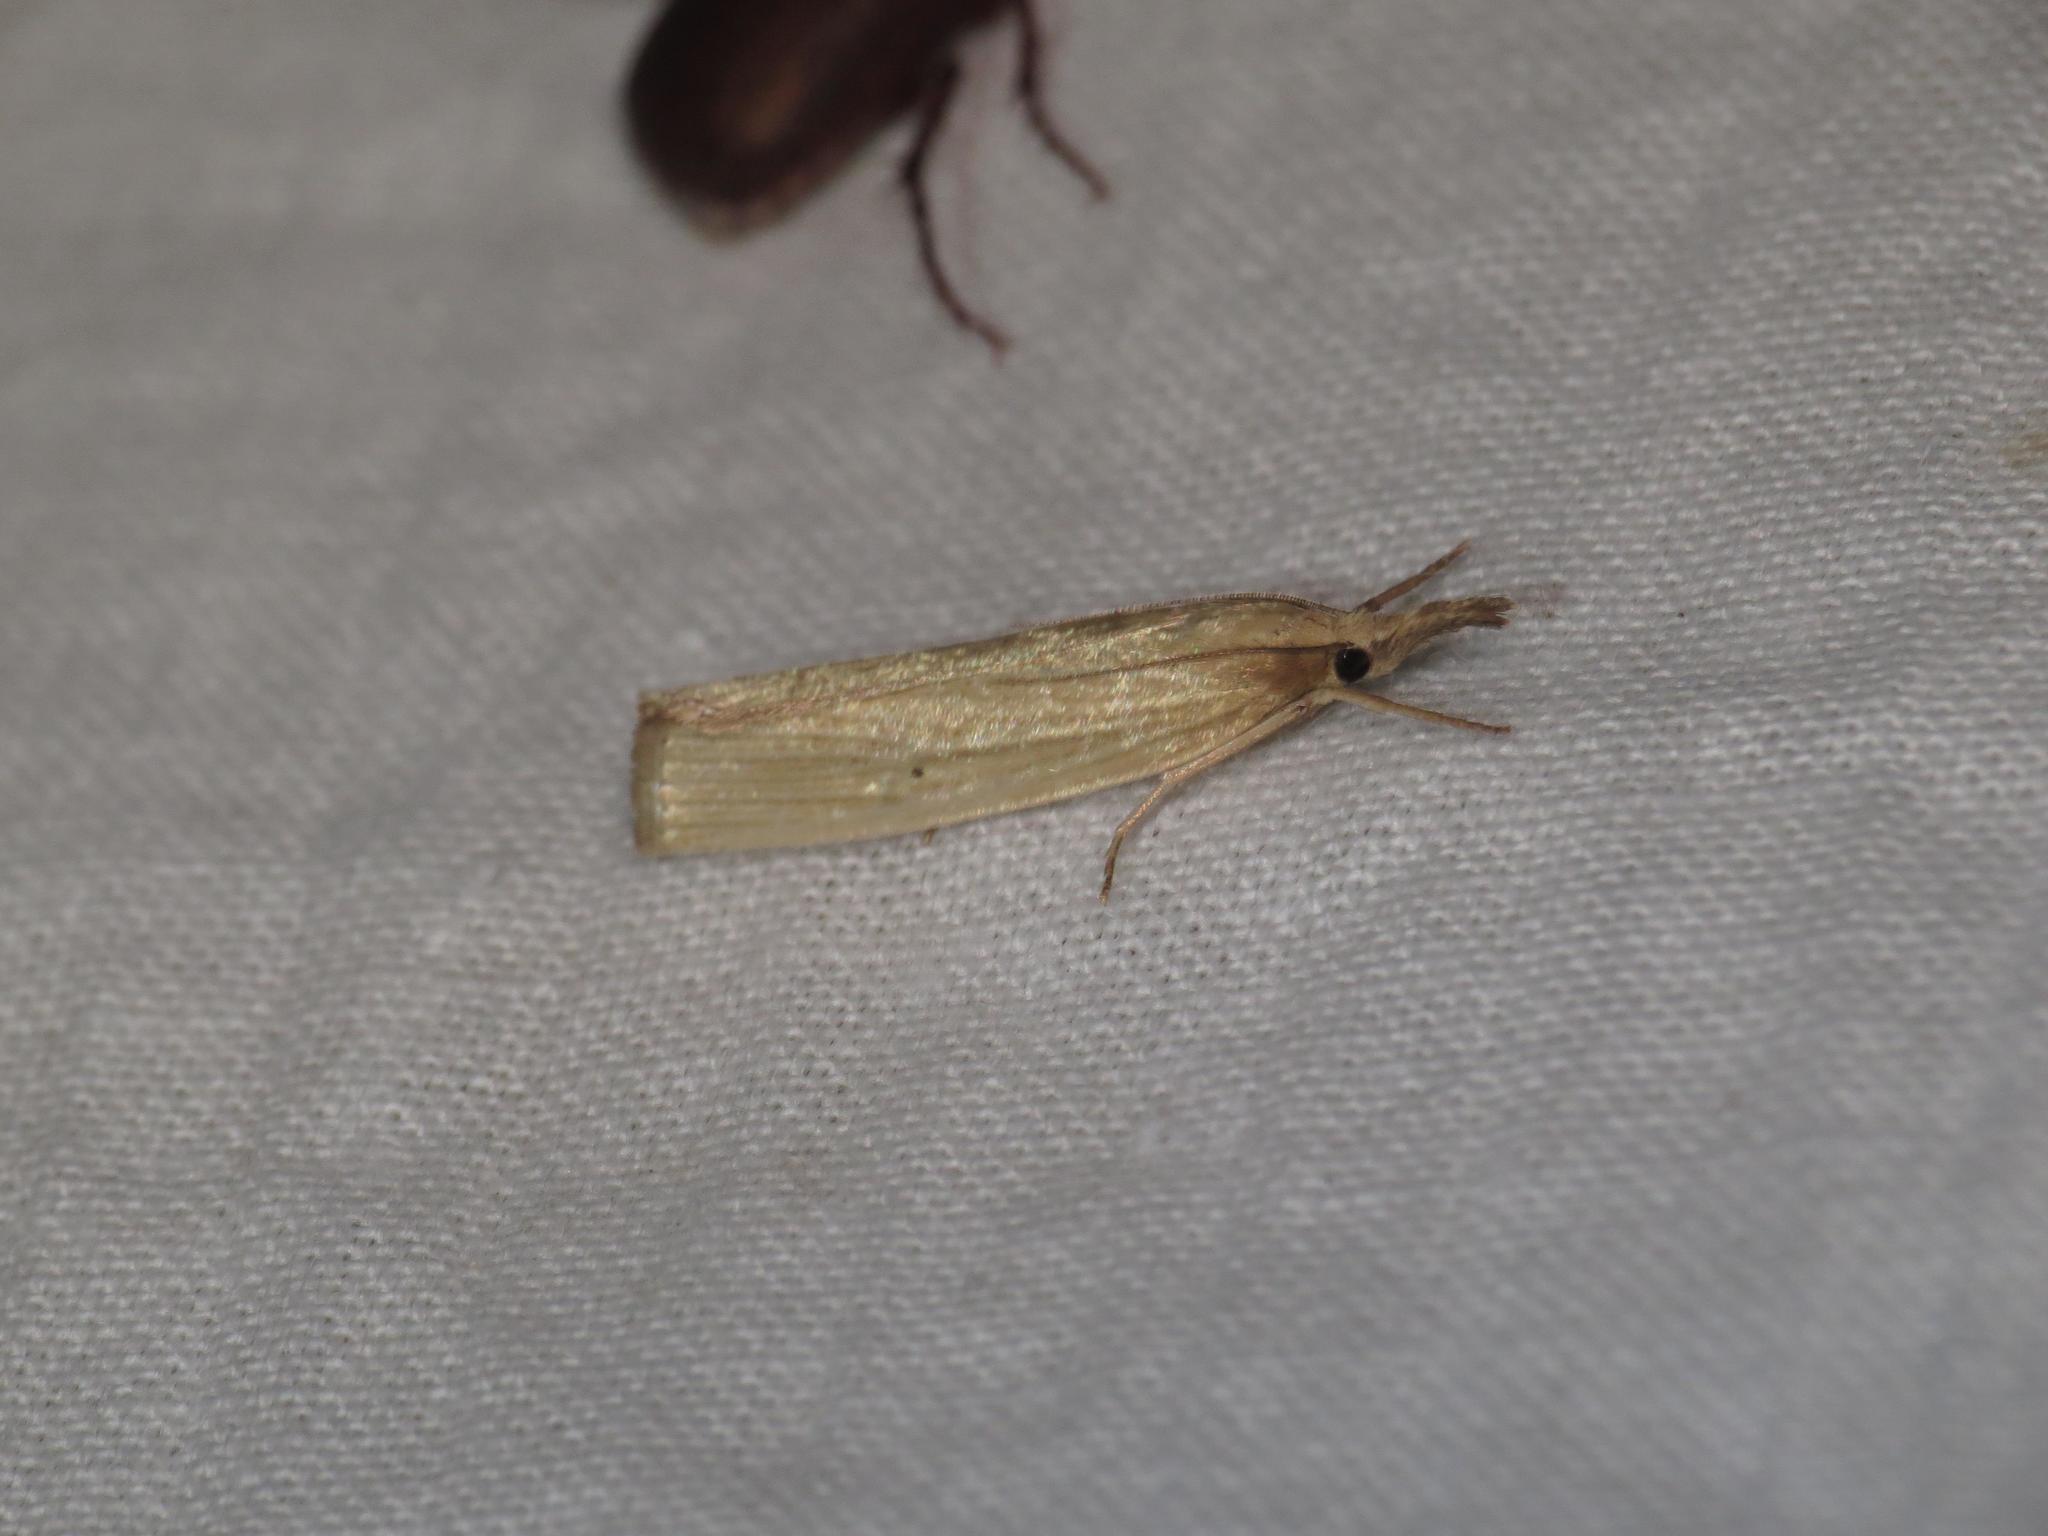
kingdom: Animalia
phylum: Arthropoda
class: Insecta
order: Lepidoptera
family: Crambidae
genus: Calamotropha
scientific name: Calamotropha leptogrammellus
